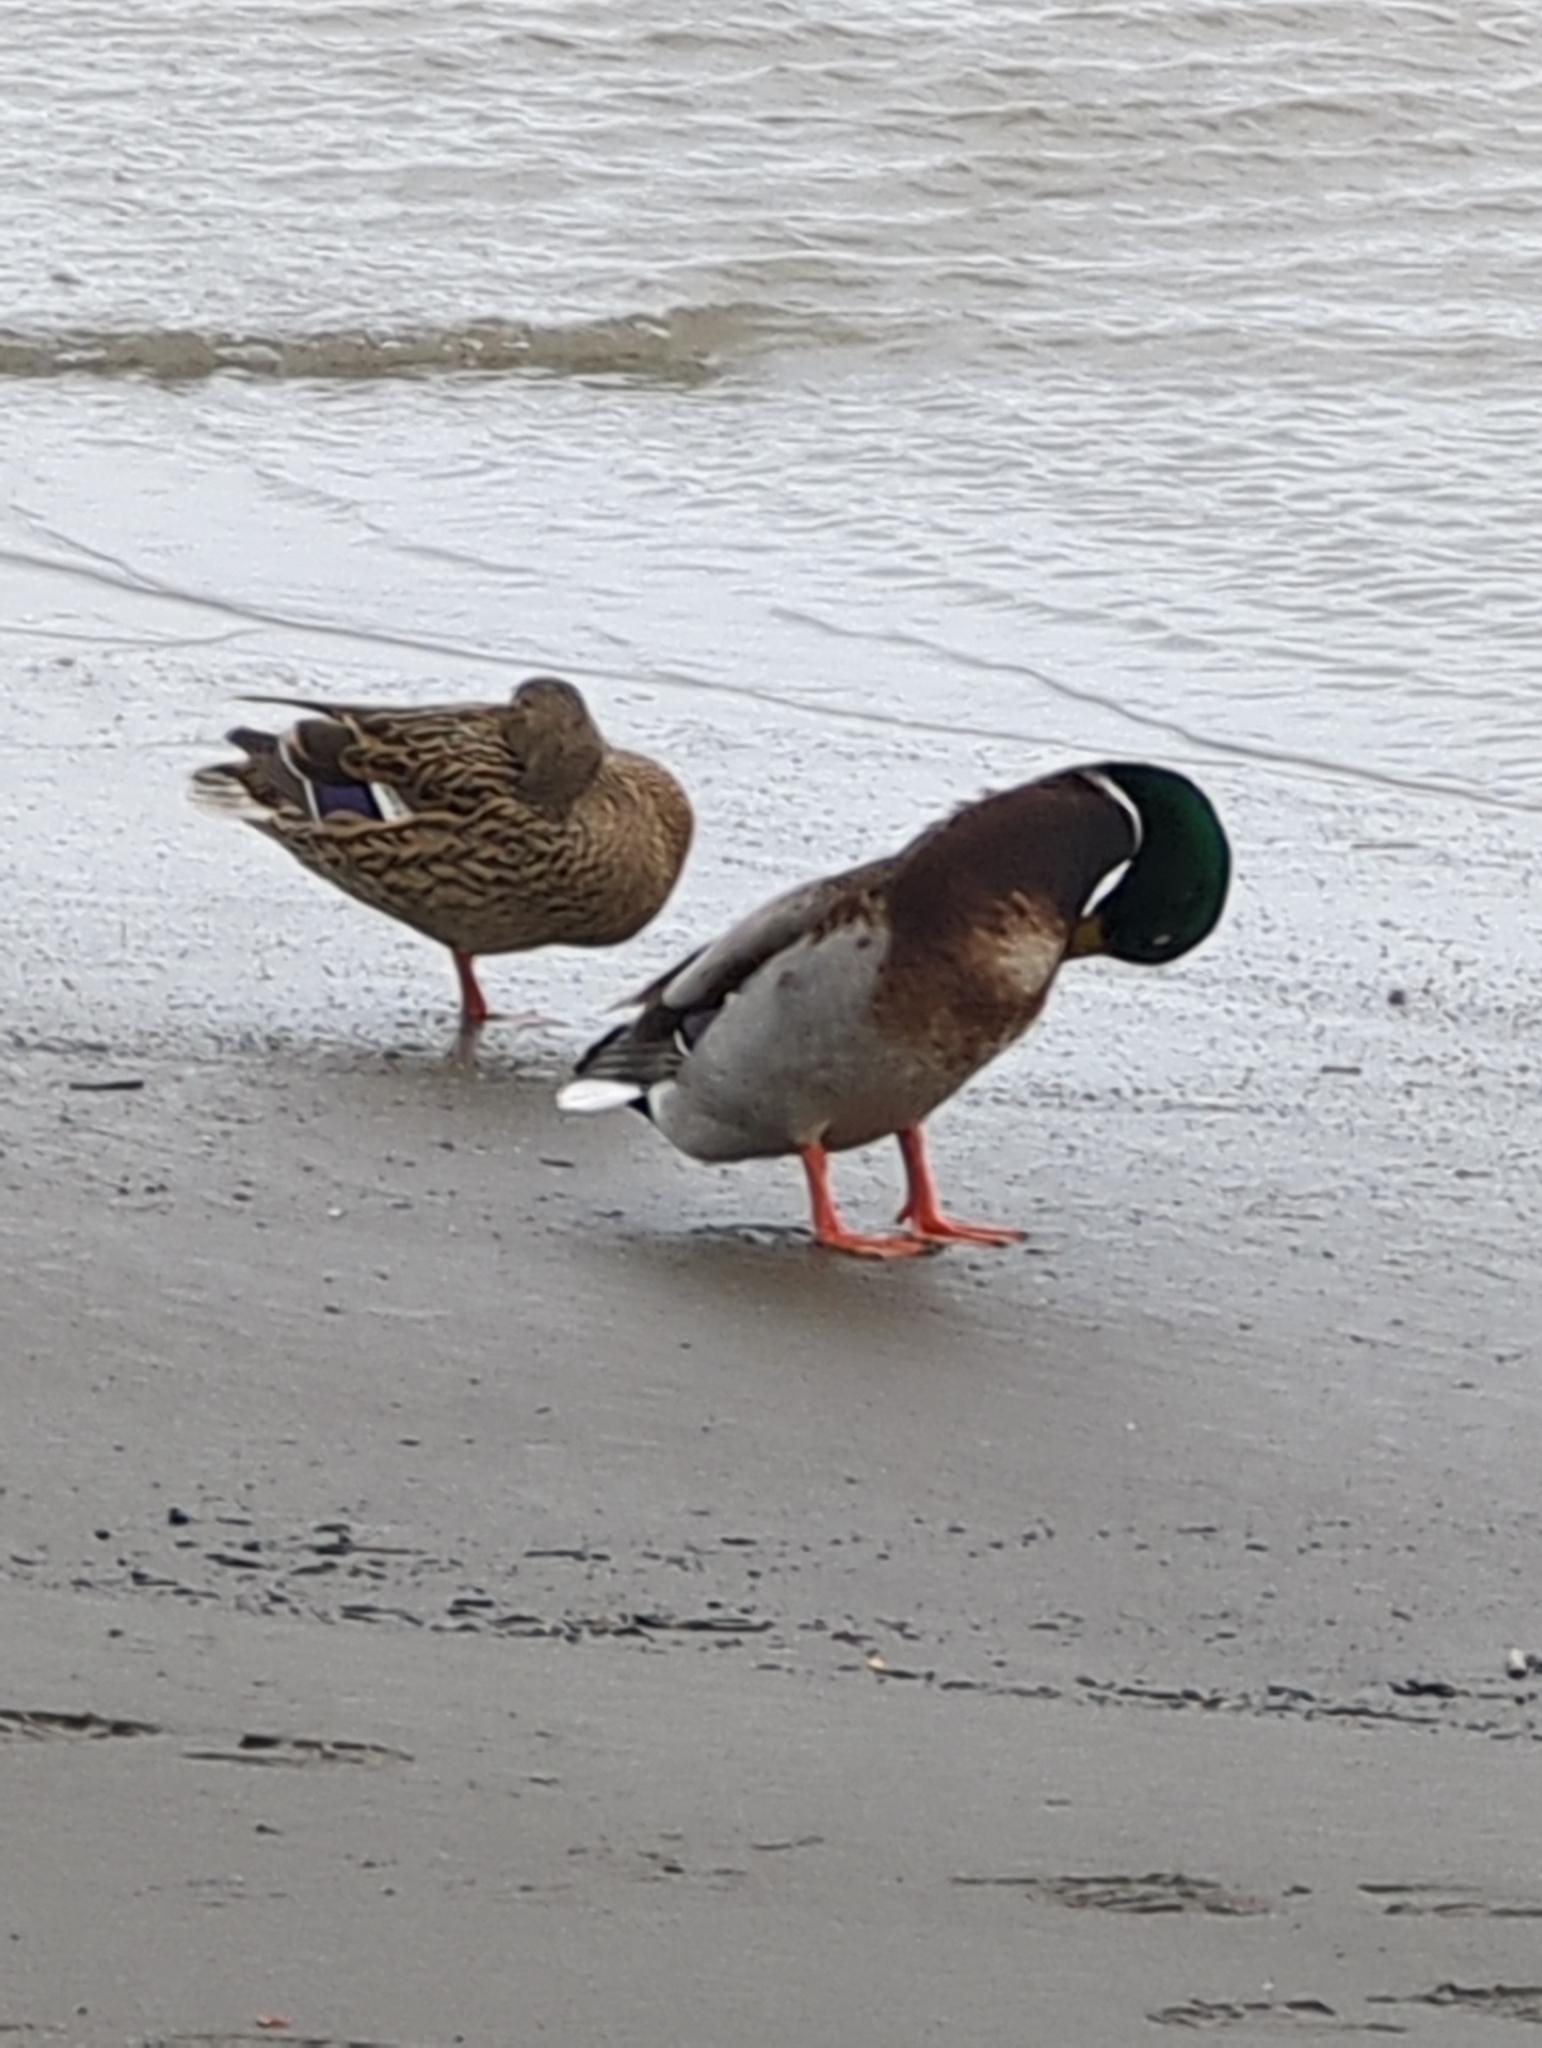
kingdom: Animalia
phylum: Chordata
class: Aves
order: Anseriformes
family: Anatidae
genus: Anas
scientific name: Anas platyrhynchos
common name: Mallard
